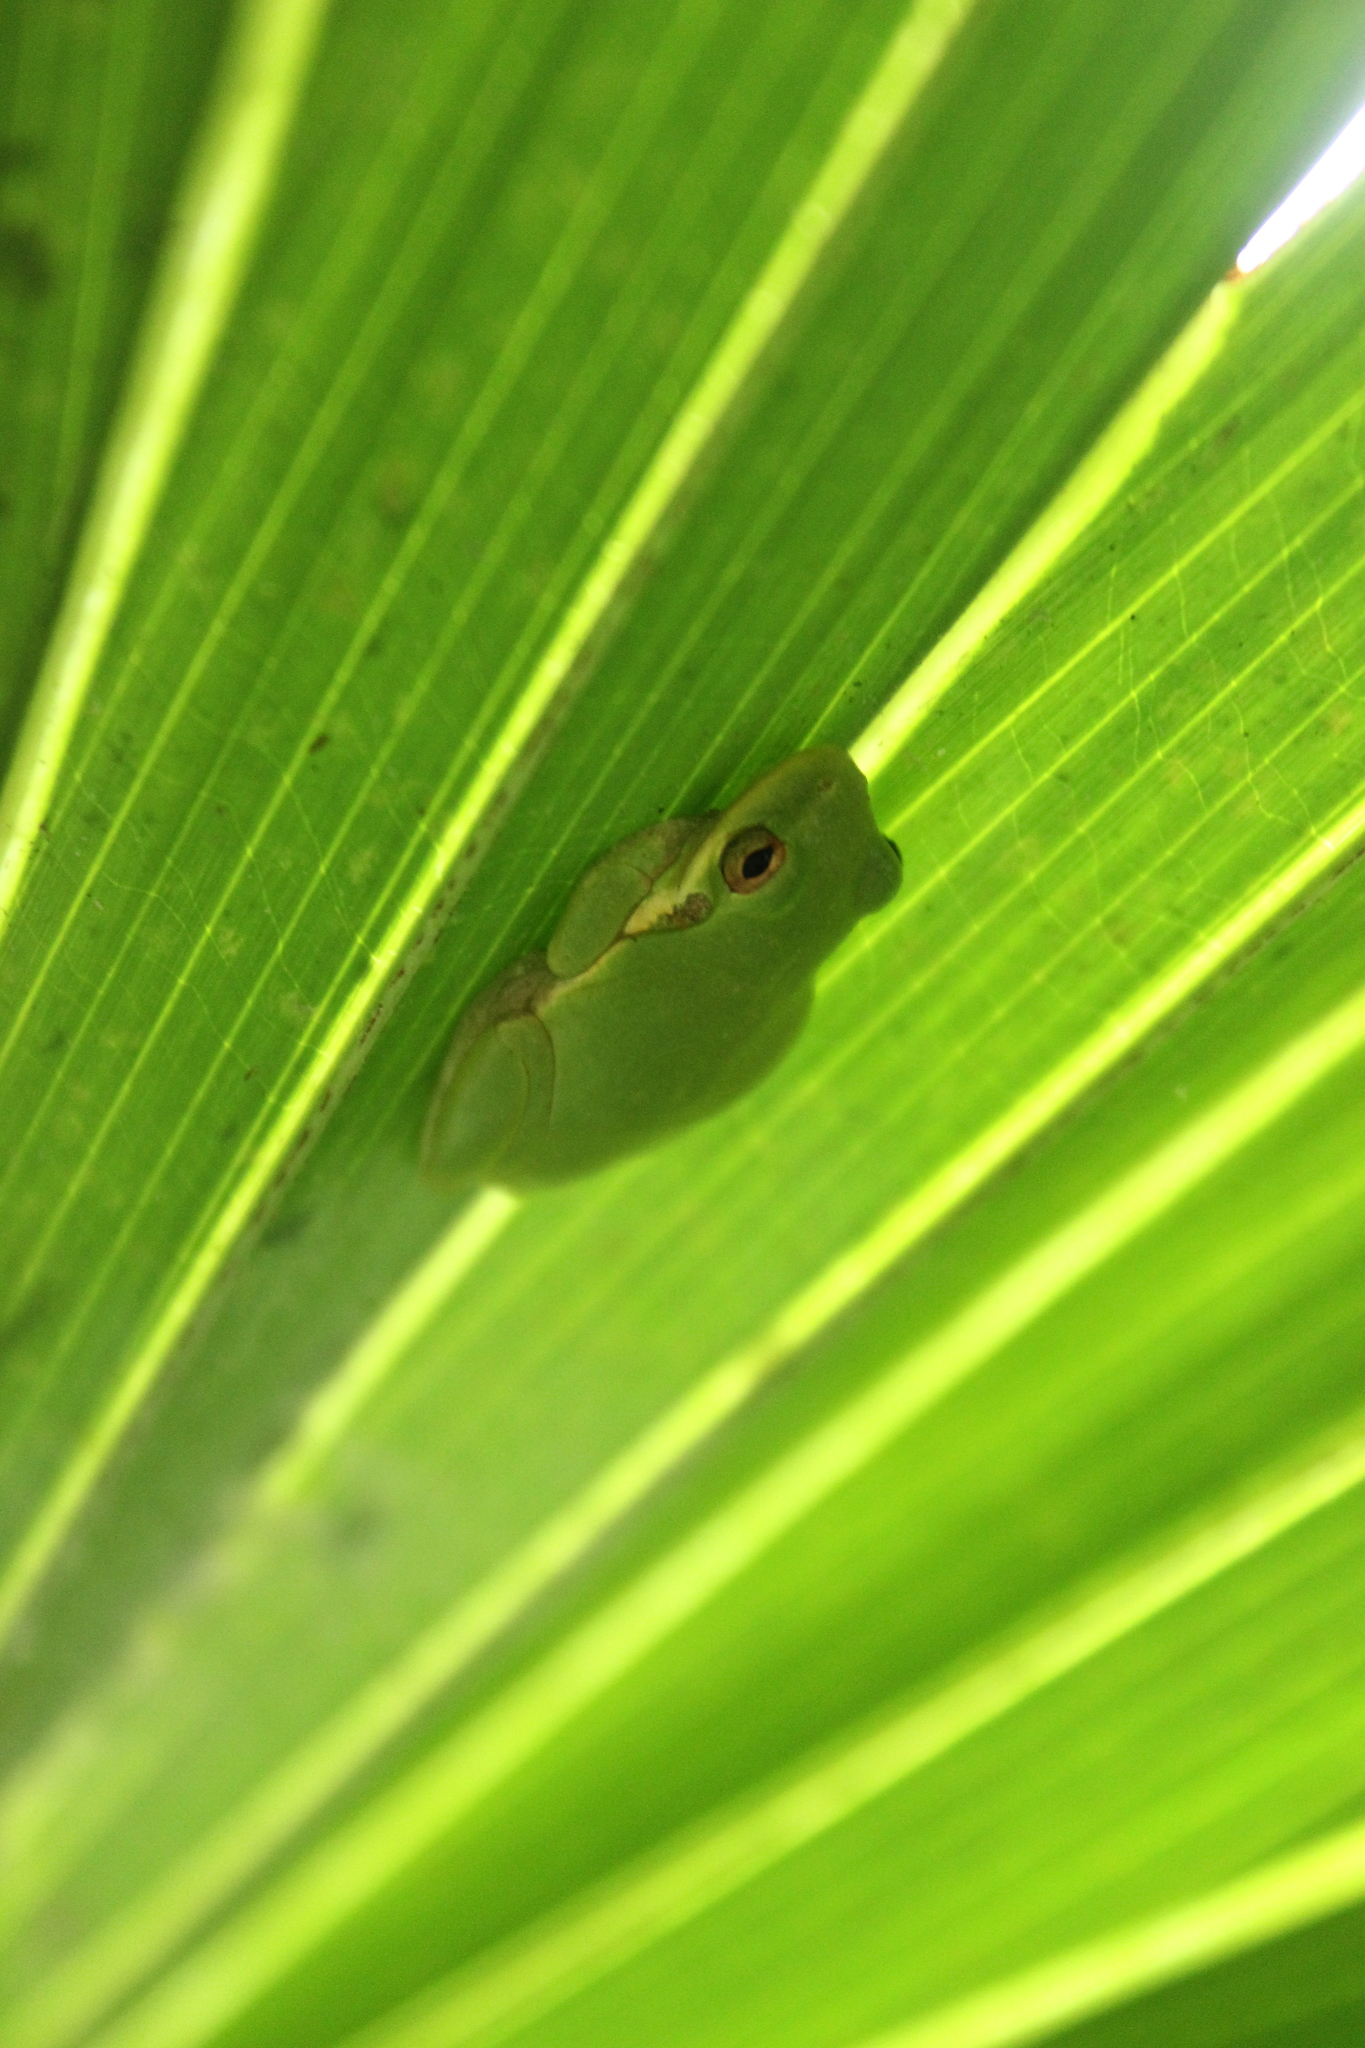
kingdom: Animalia
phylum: Chordata
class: Amphibia
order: Anura
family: Hylidae
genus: Dryophytes
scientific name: Dryophytes squirellus
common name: Squirrel treefrog
